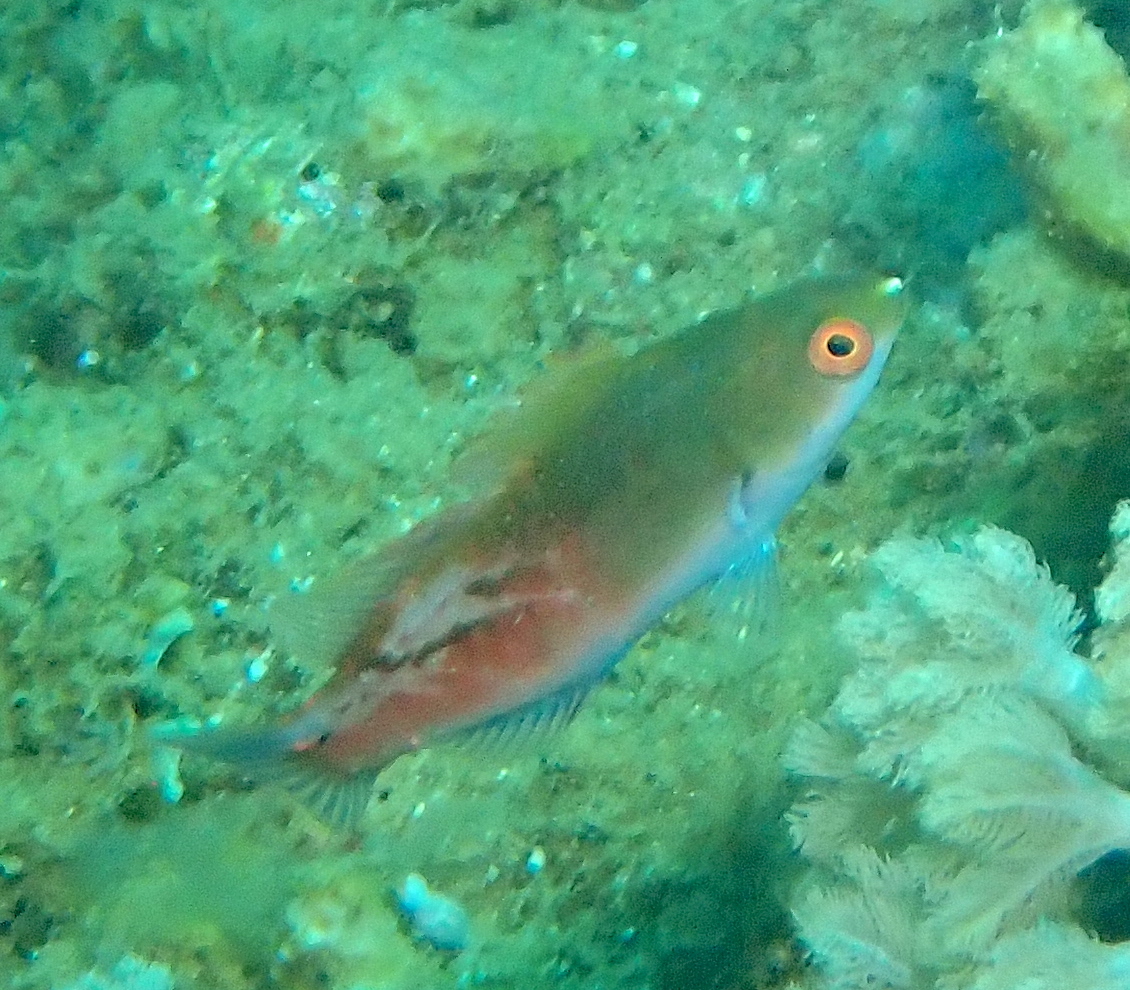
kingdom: Animalia
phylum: Chordata
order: Perciformes
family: Labridae
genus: Cirrhilabrus
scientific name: Cirrhilabrus cyanopleura
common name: Coralline wrasse
